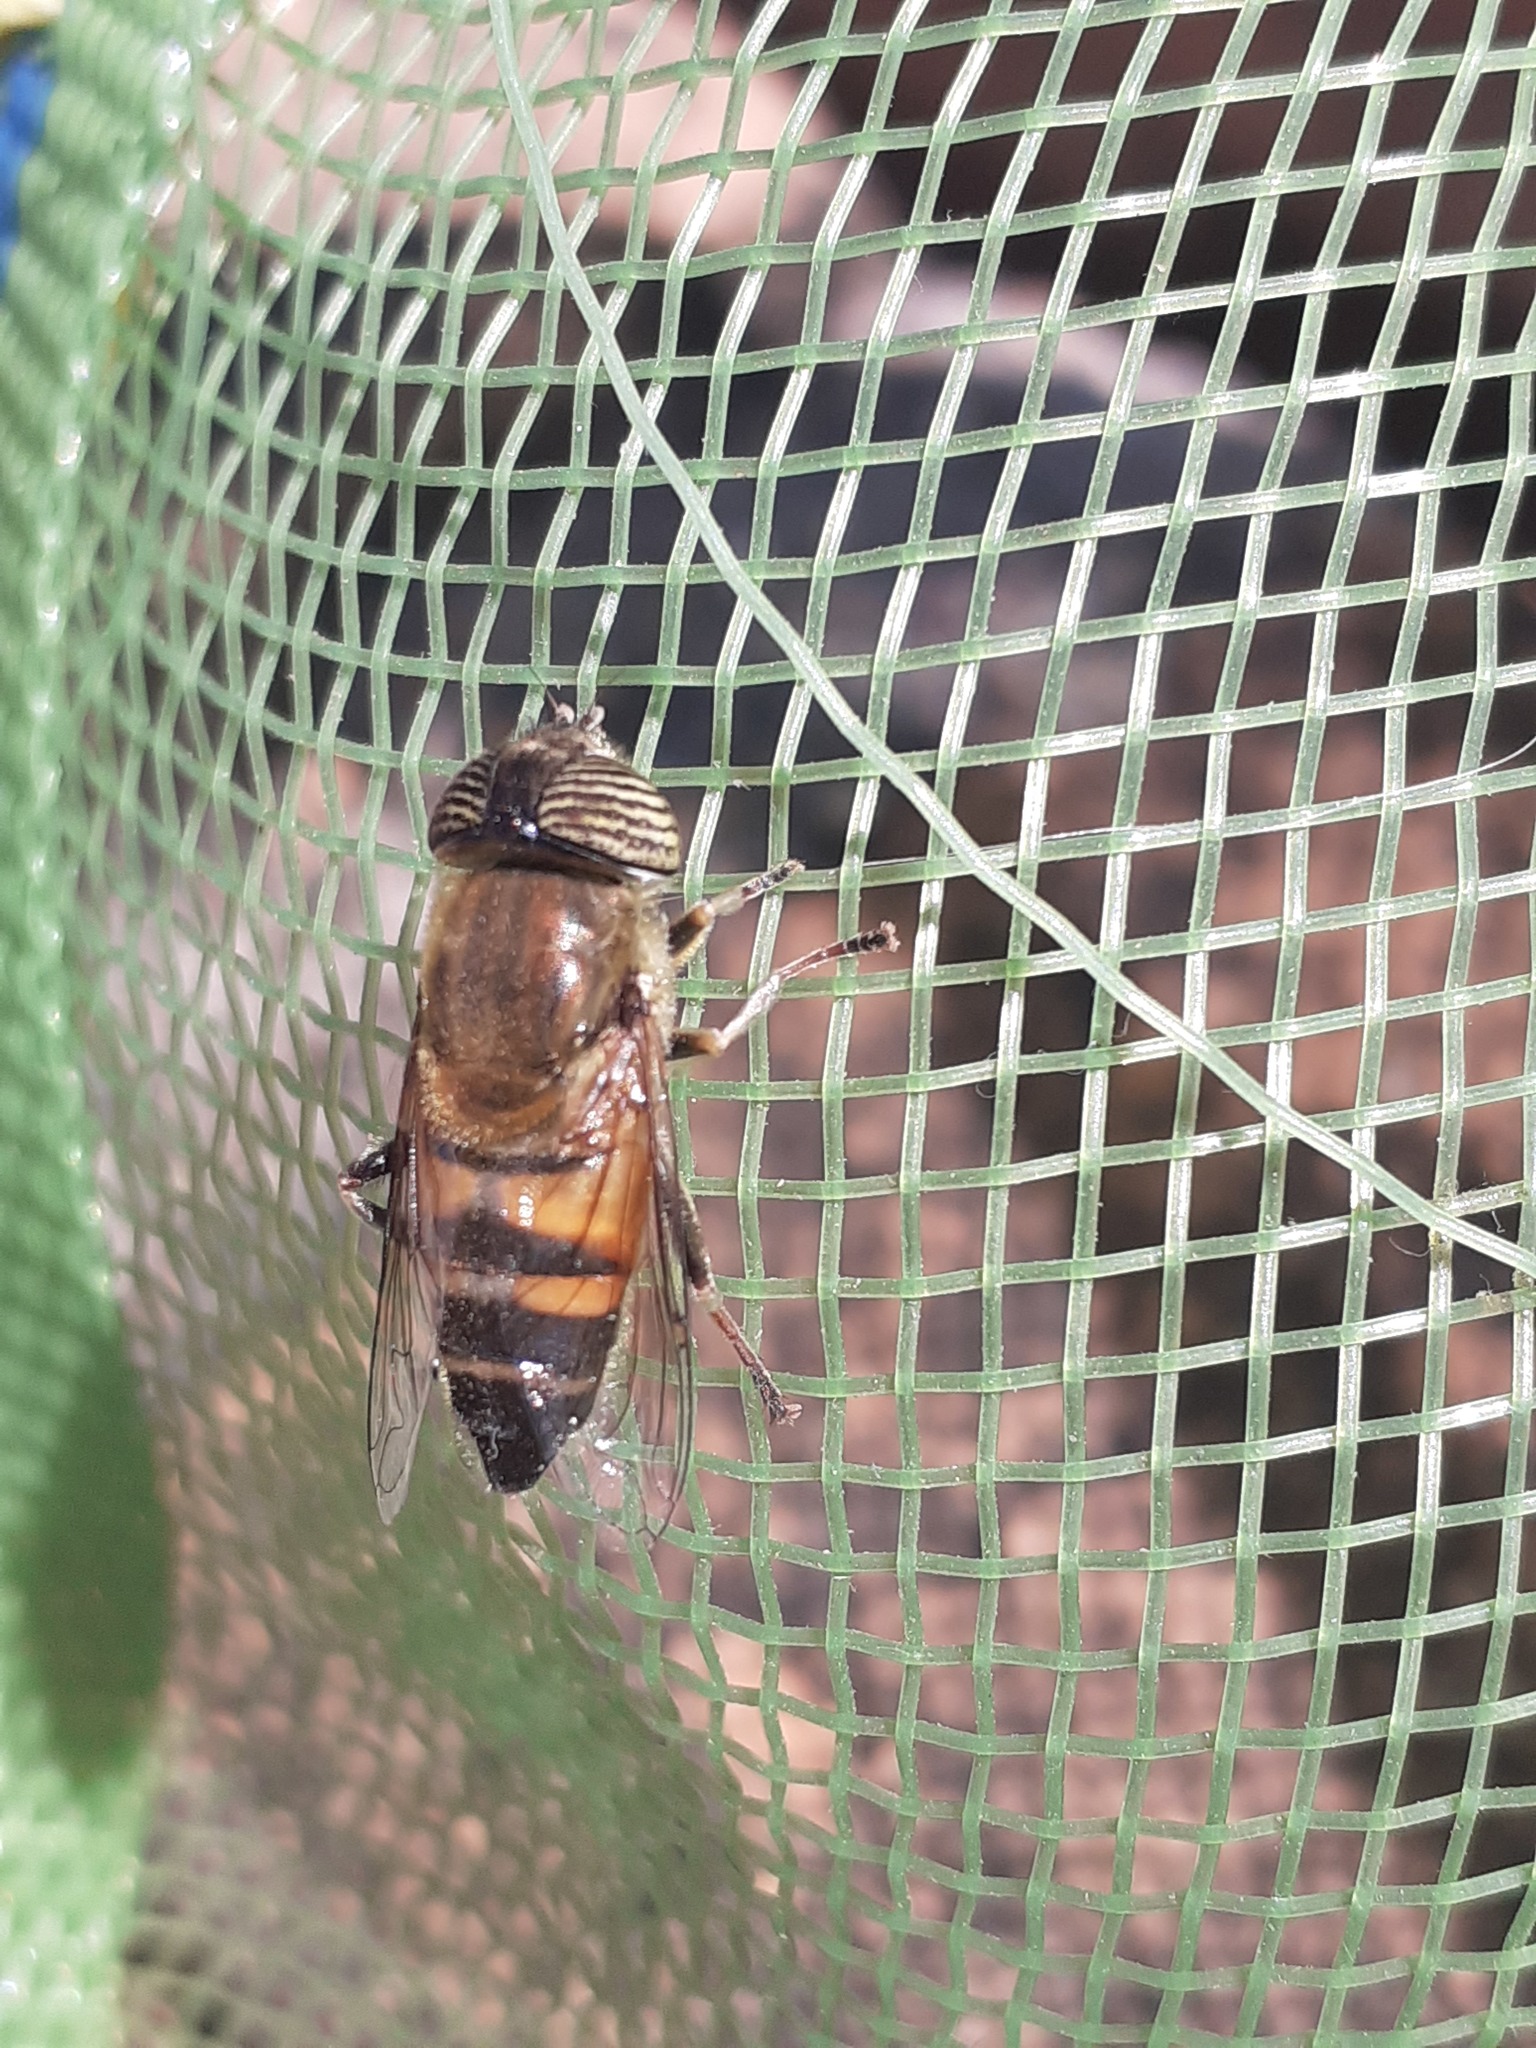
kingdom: Animalia
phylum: Arthropoda
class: Insecta
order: Diptera
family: Syrphidae
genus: Eristalinus
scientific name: Eristalinus taeniops
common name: Syrphid fly
